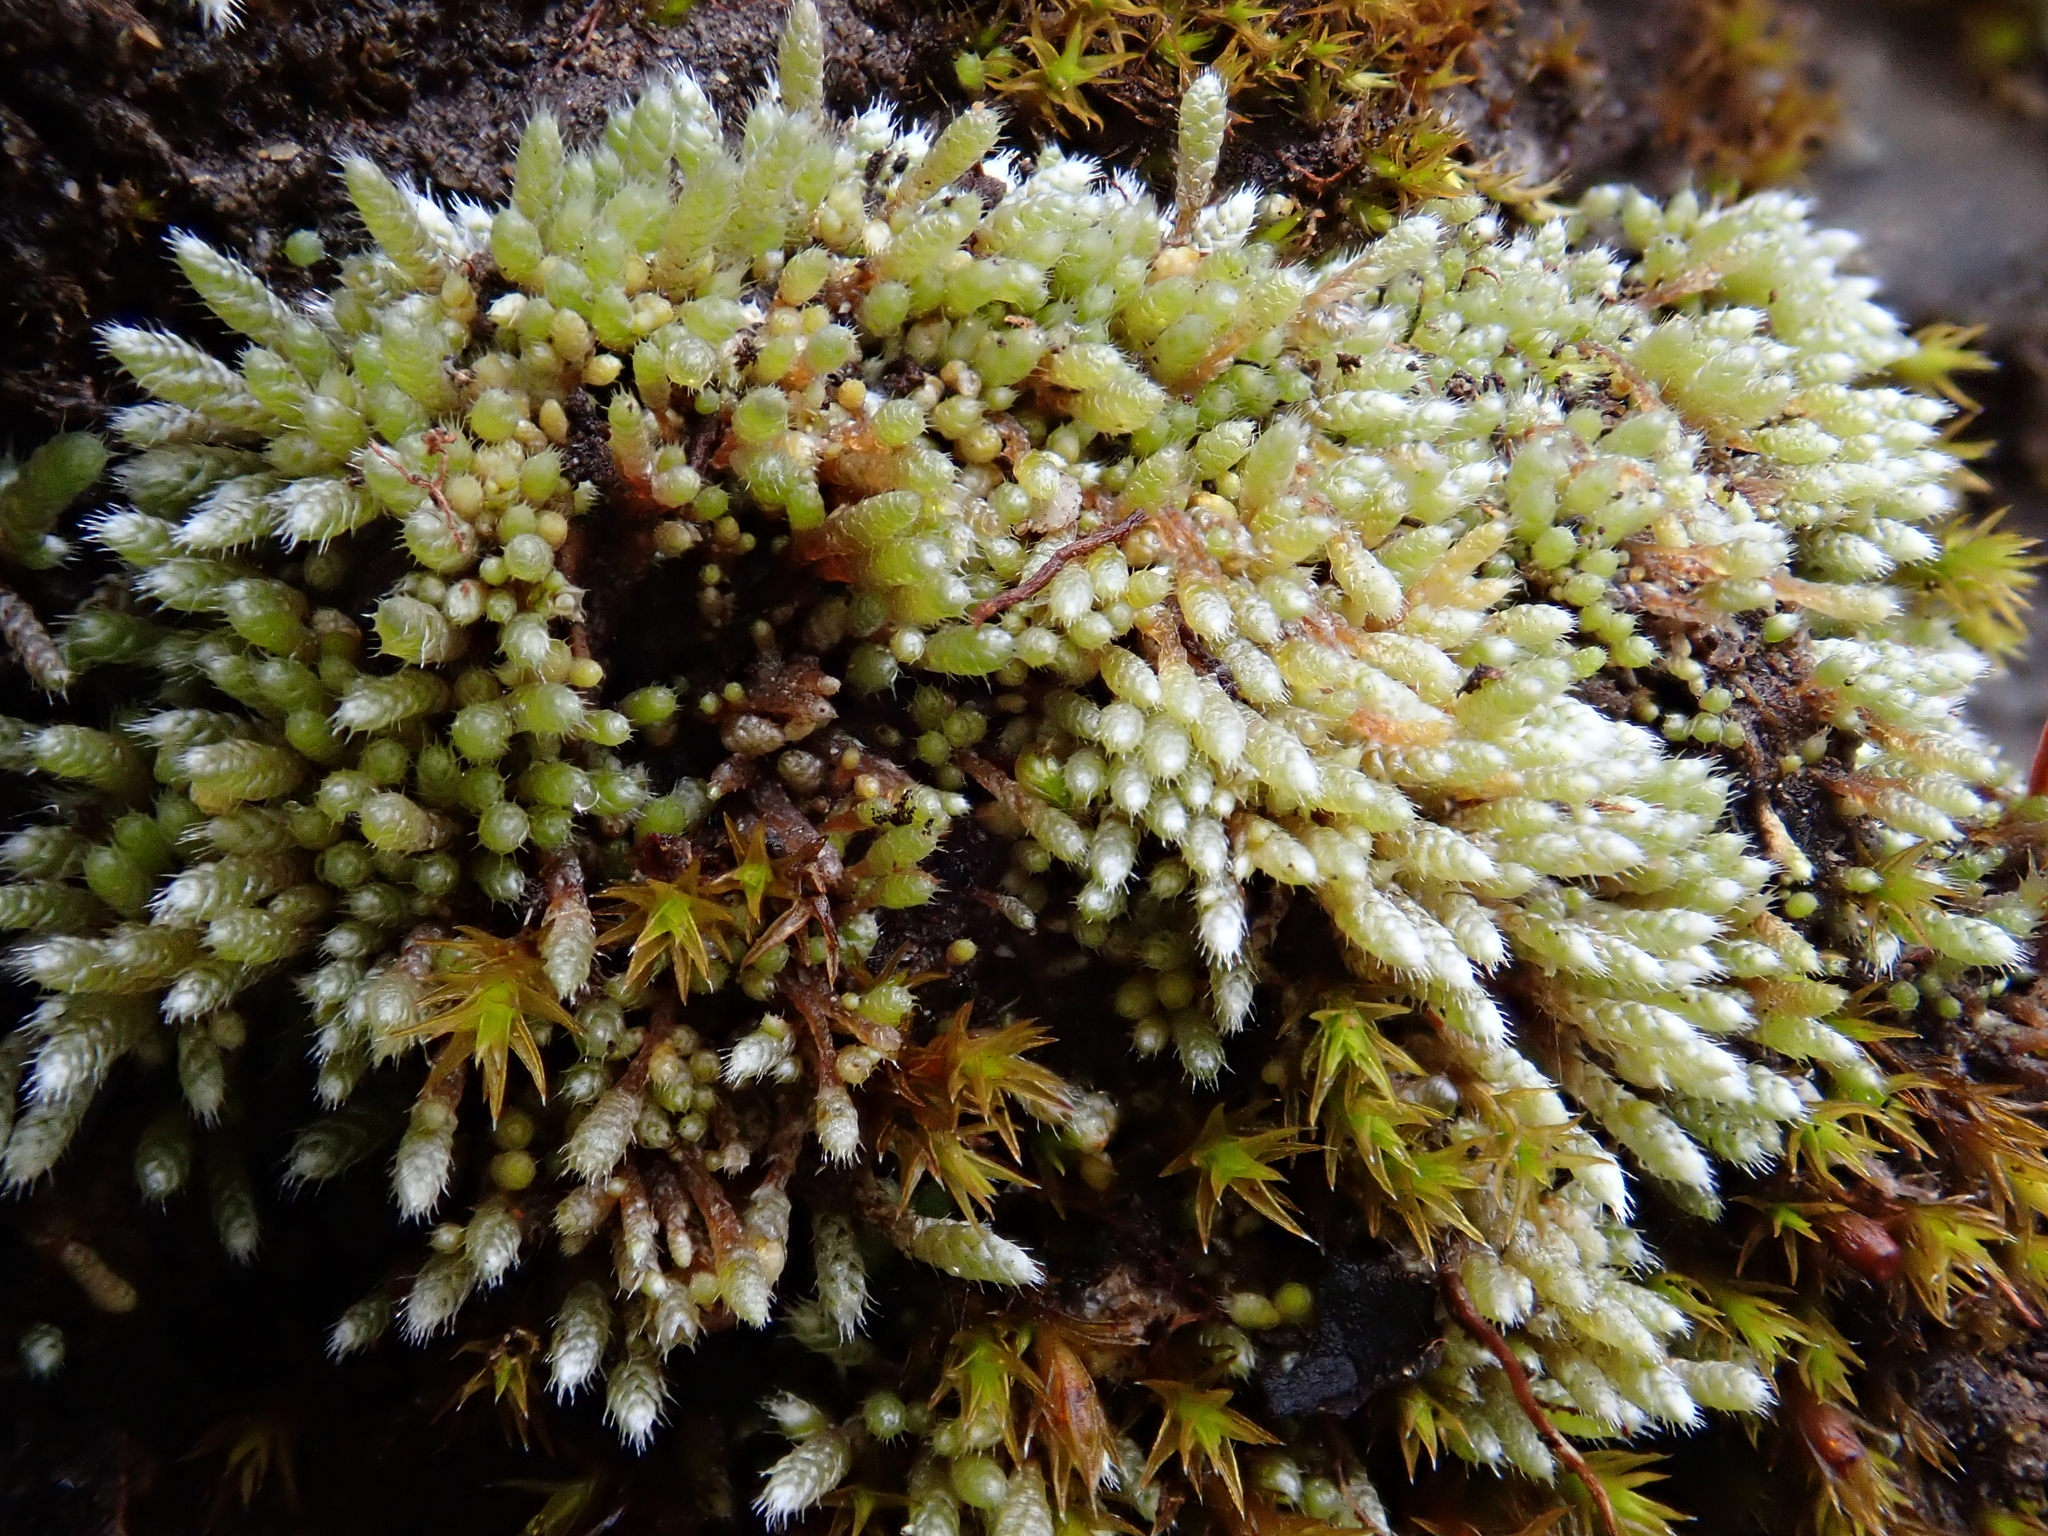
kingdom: Plantae
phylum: Bryophyta
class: Bryopsida
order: Bryales
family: Bryaceae
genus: Bryum
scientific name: Bryum argenteum
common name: Silver-moss
